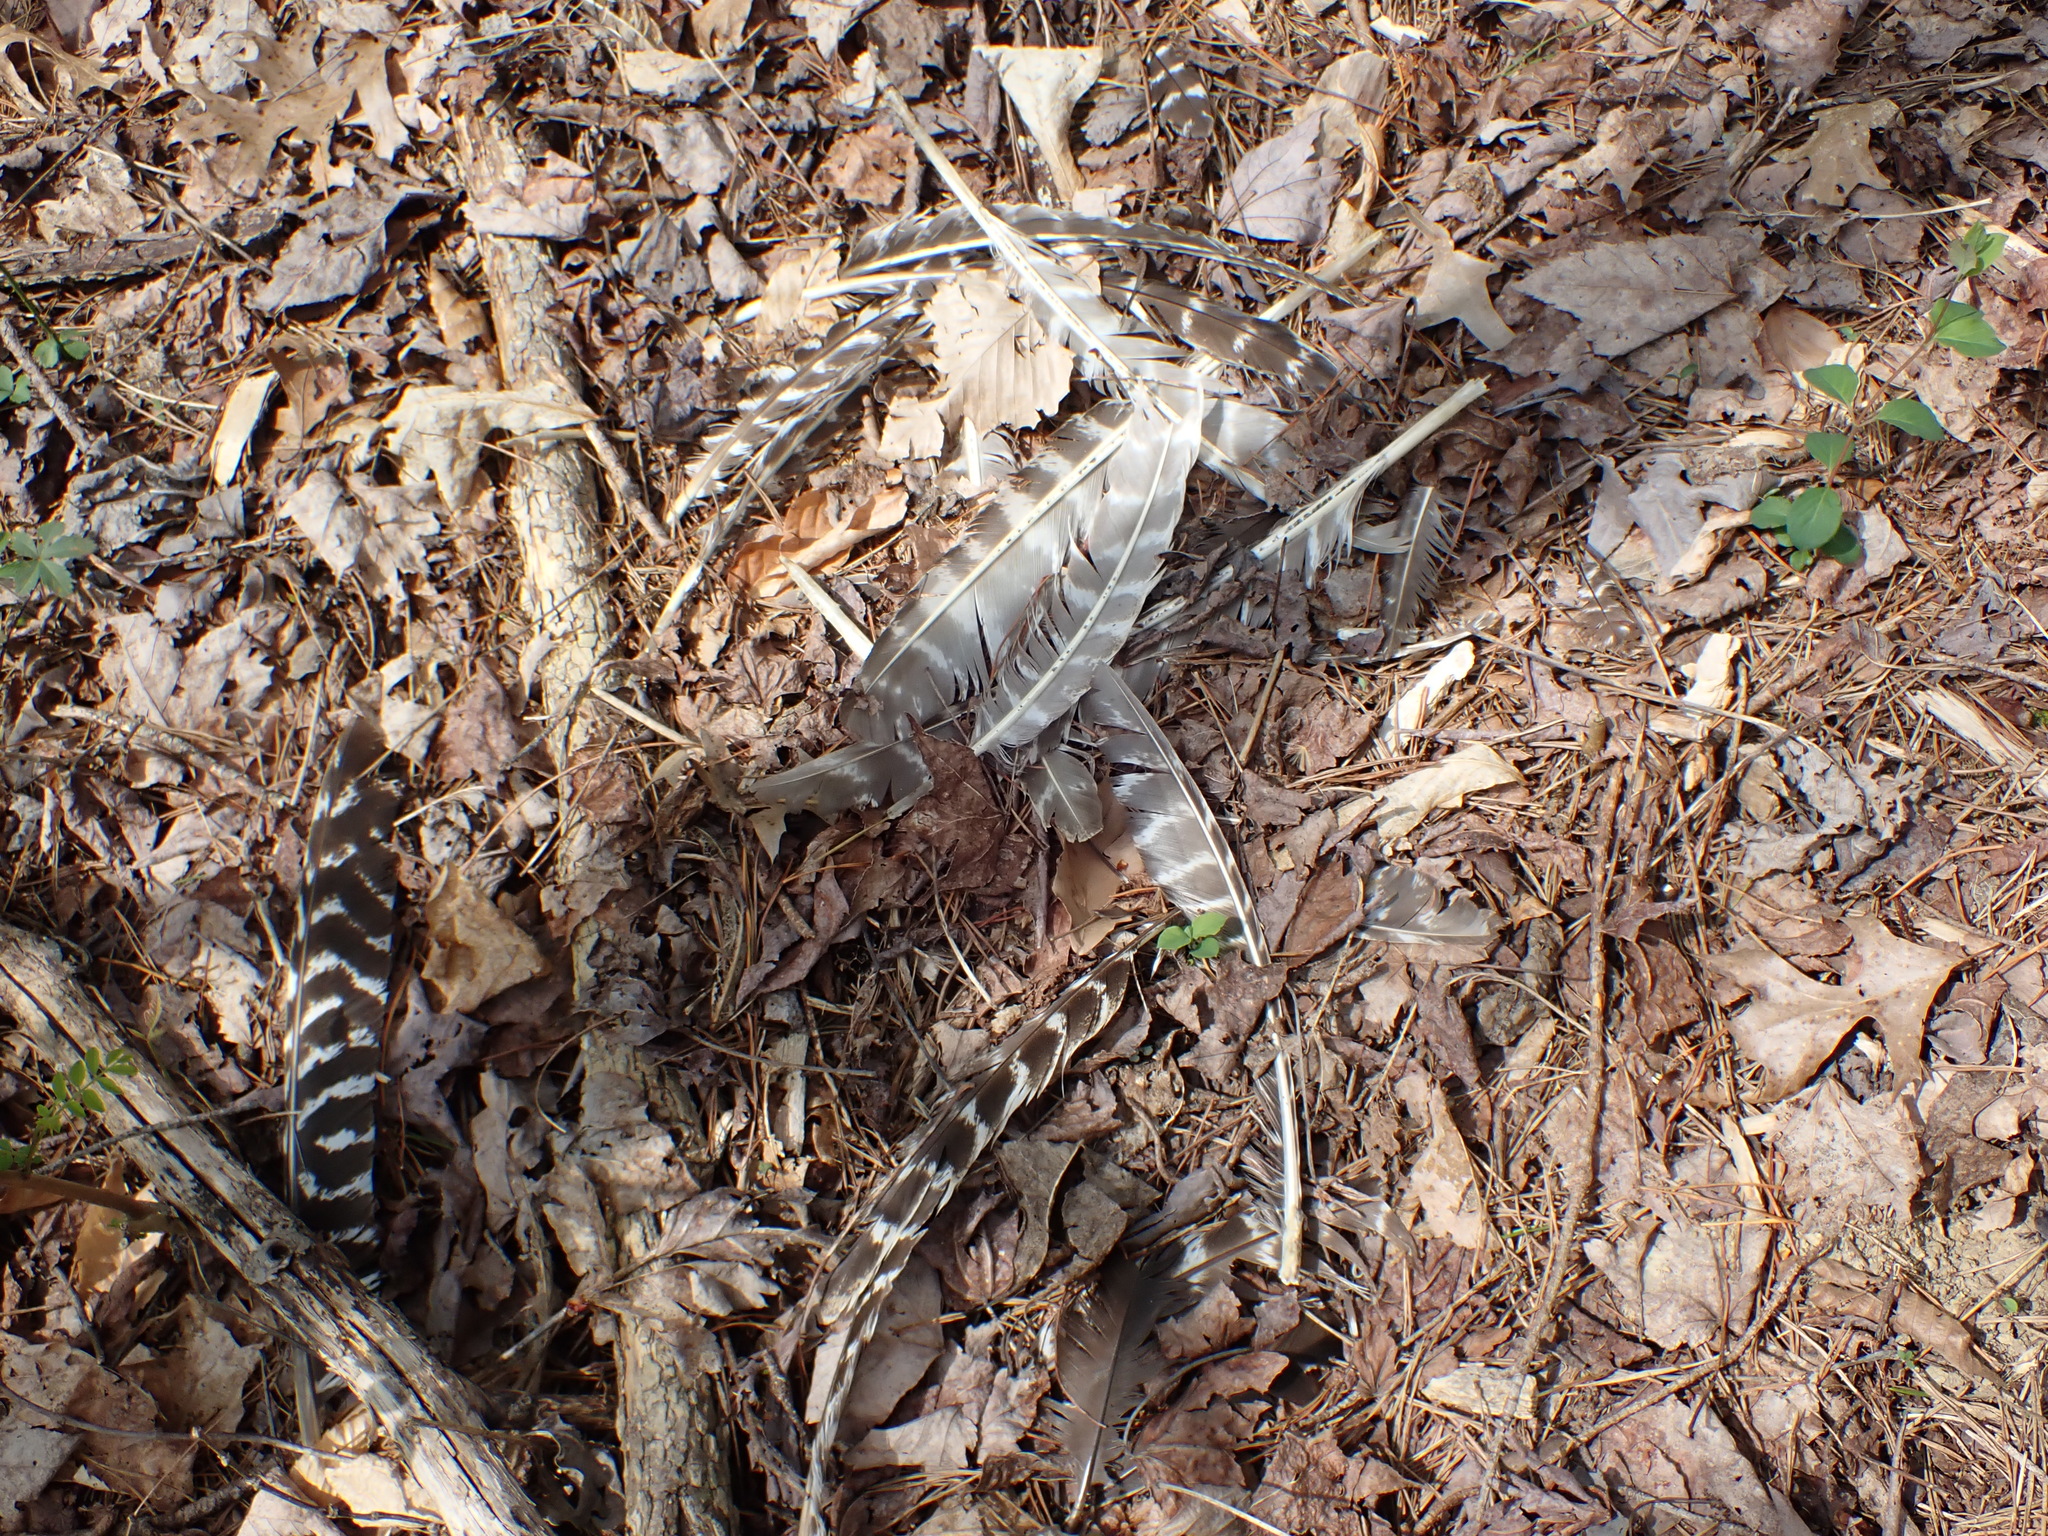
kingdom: Animalia
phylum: Chordata
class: Aves
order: Galliformes
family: Phasianidae
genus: Meleagris
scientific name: Meleagris gallopavo
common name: Wild turkey
